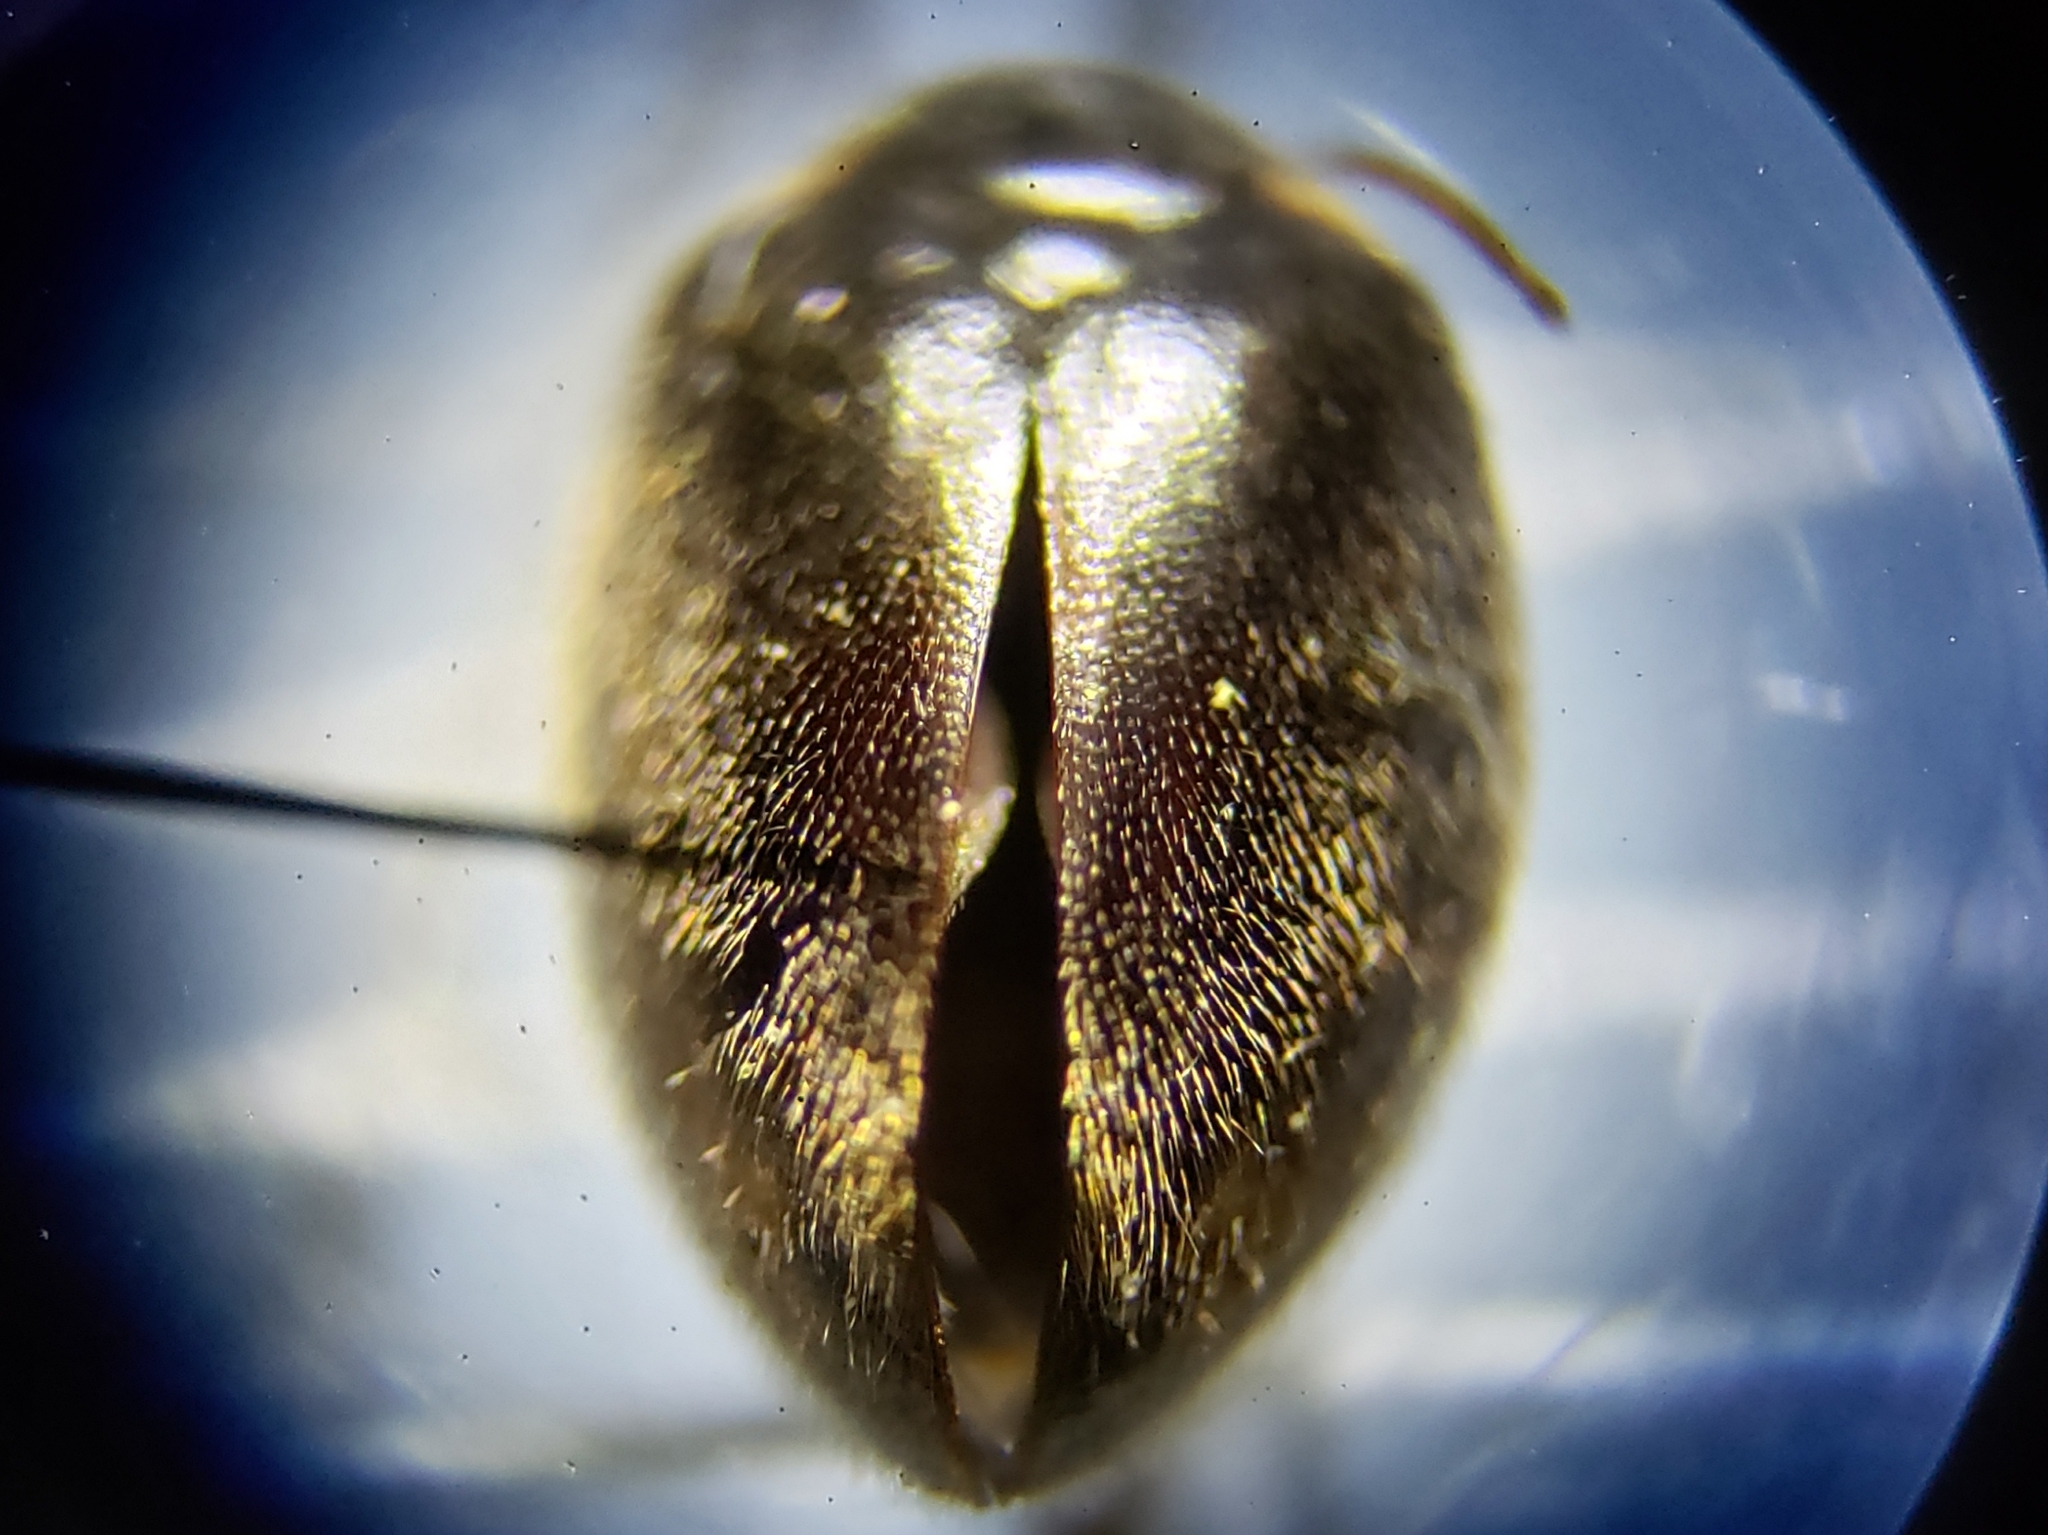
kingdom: Animalia
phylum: Arthropoda
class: Insecta
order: Coleoptera
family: Scirtidae
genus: Scirtes
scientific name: Scirtes orbiculatus
